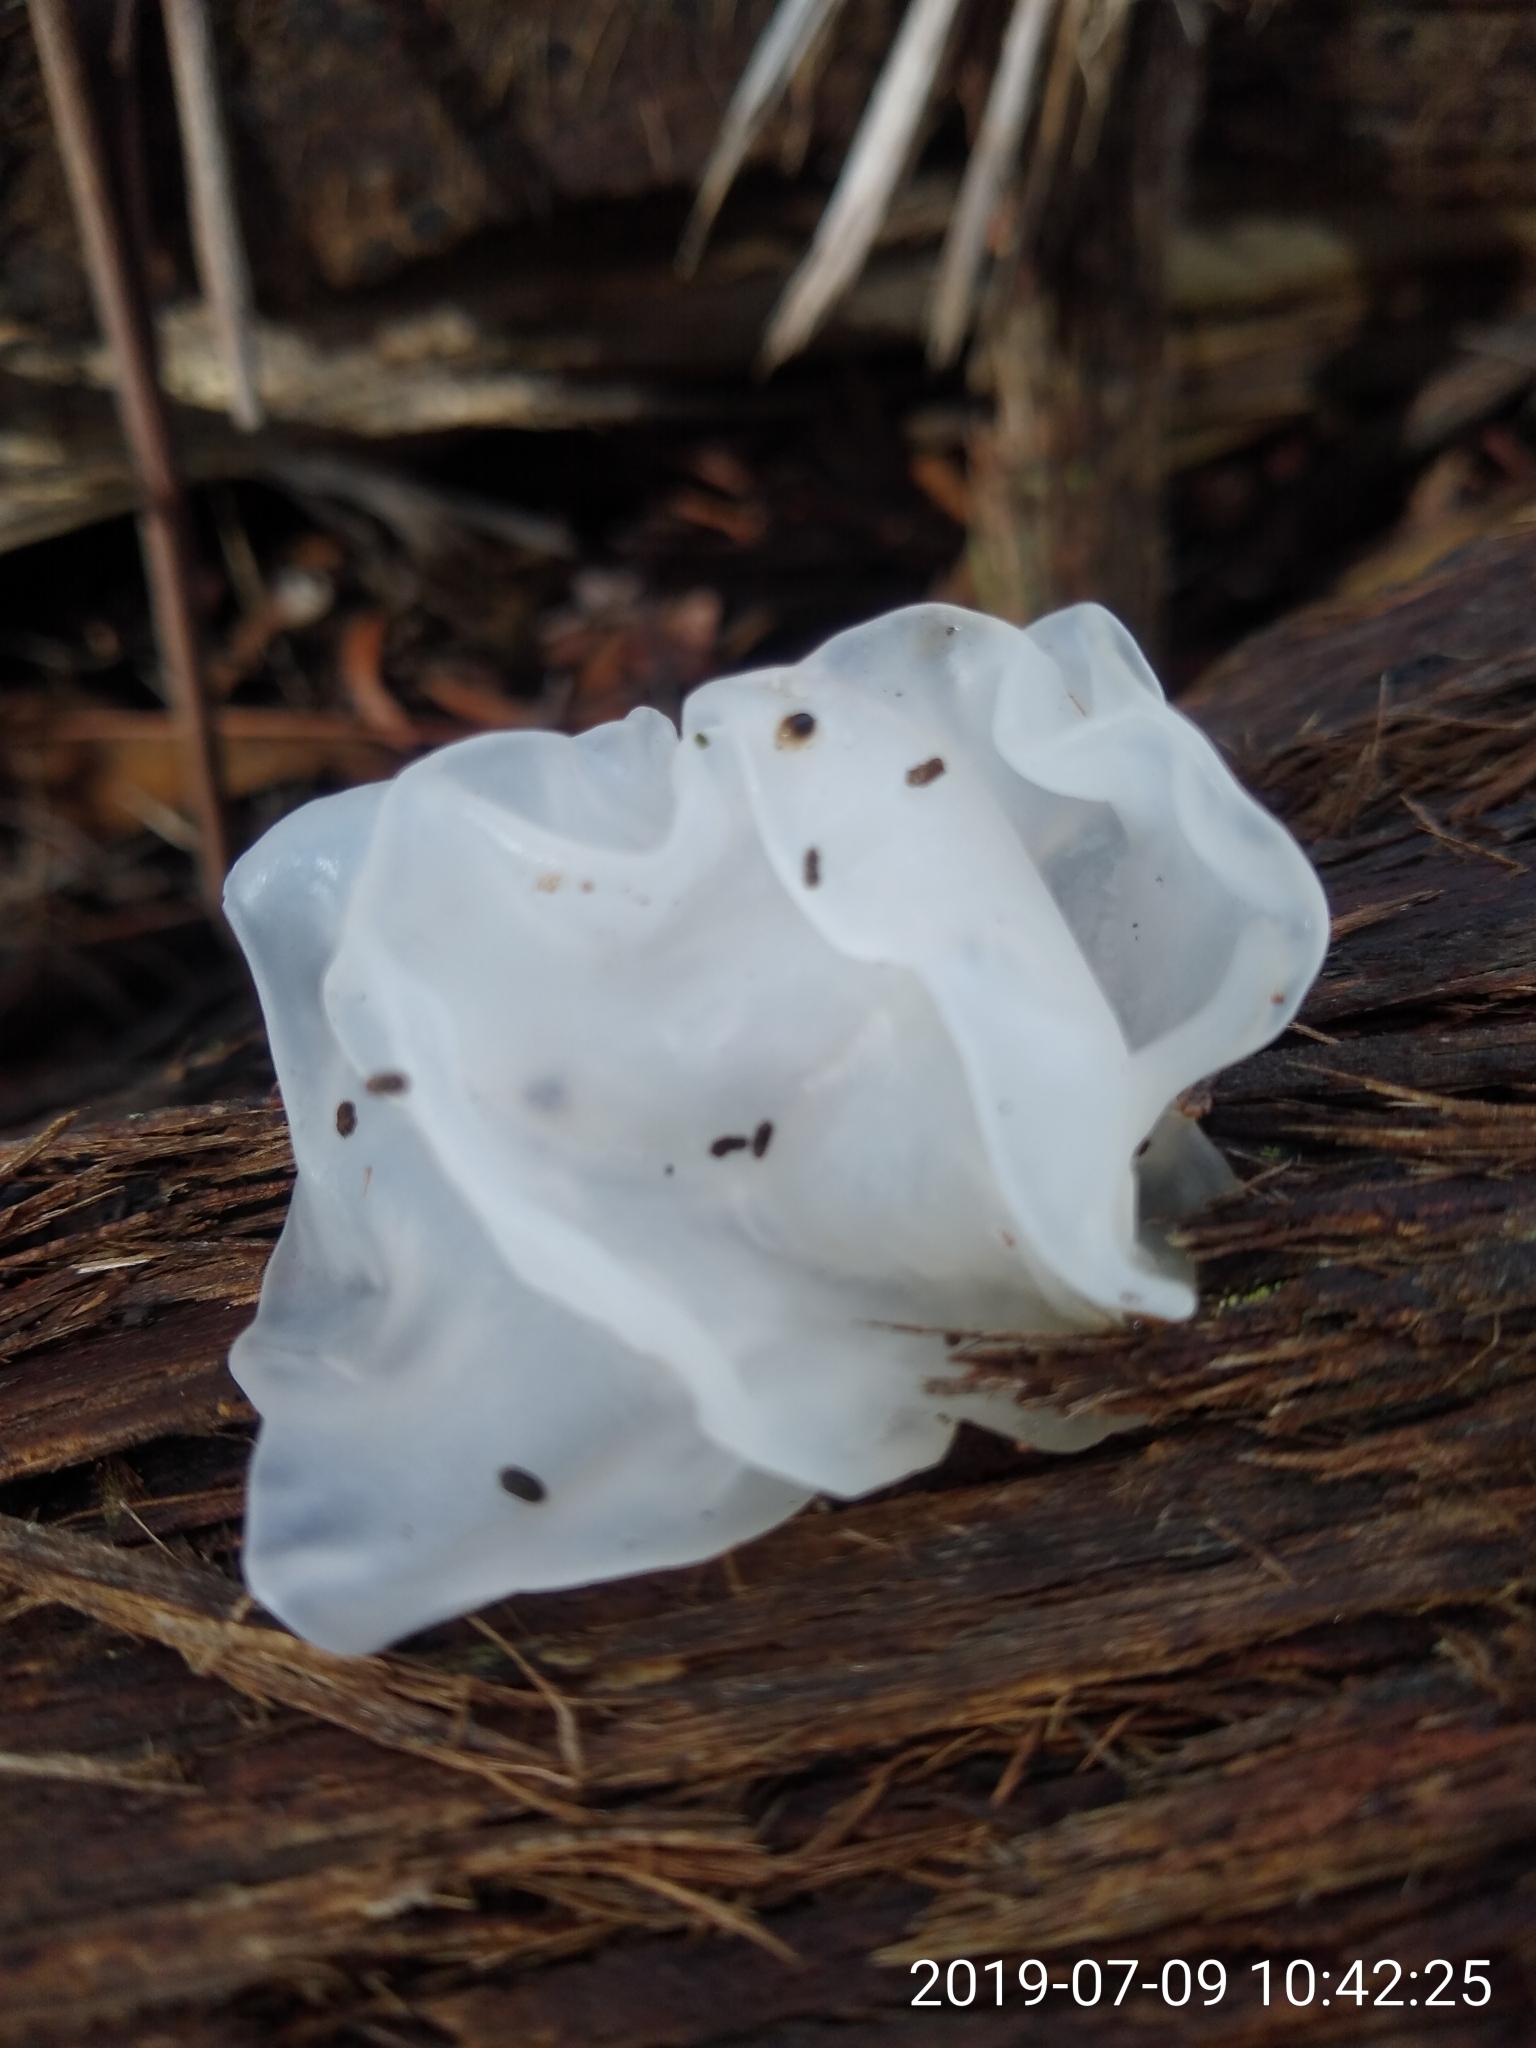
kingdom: Fungi
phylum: Basidiomycota
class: Tremellomycetes
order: Tremellales
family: Tremellaceae
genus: Tremella
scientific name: Tremella fuciformis
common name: Snow fungus
